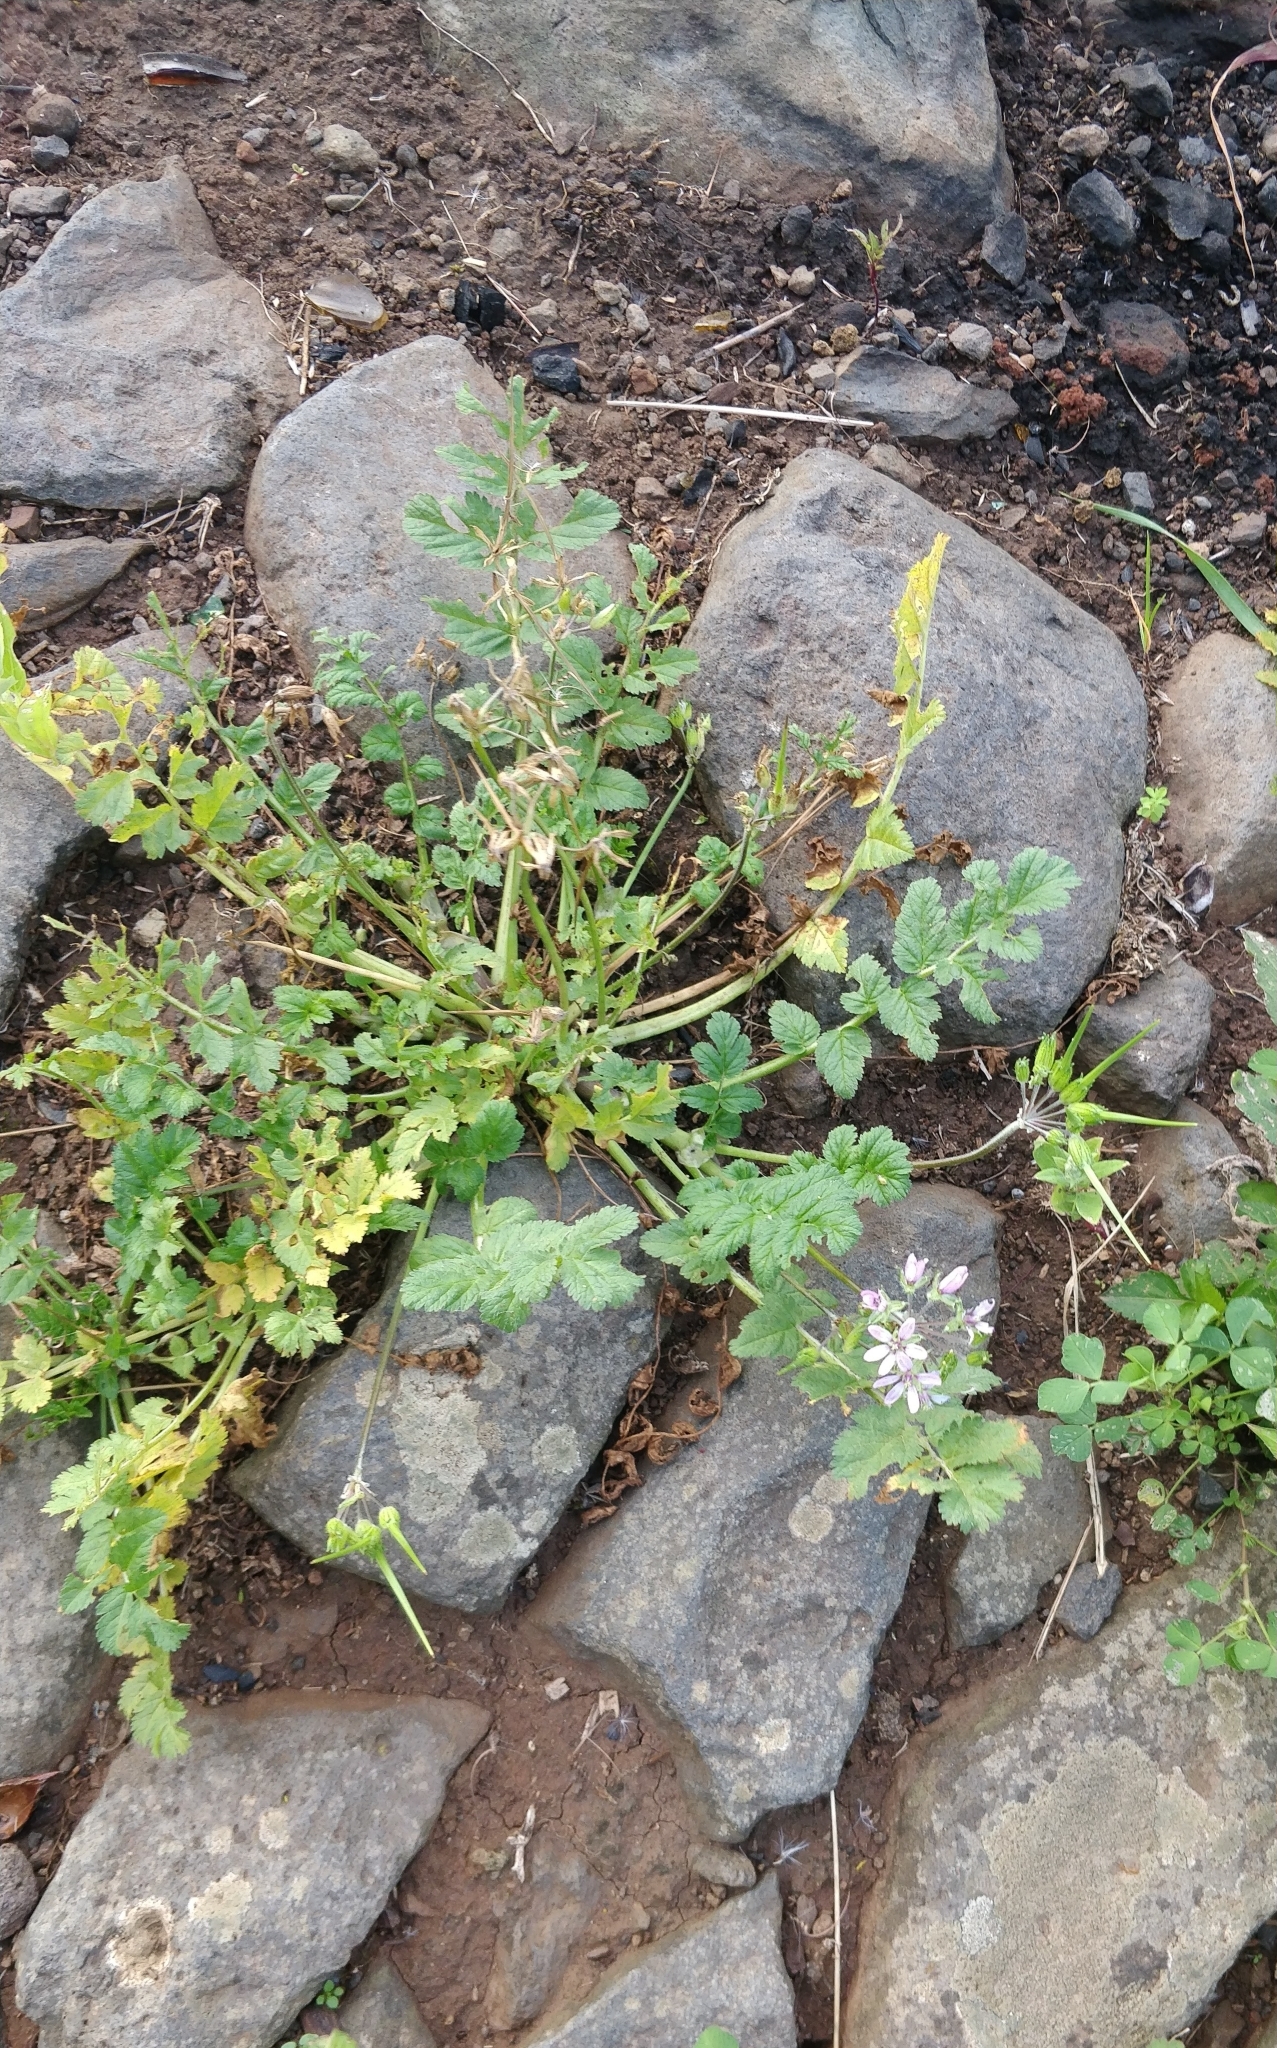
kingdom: Plantae
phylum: Tracheophyta
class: Magnoliopsida
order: Geraniales
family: Geraniaceae
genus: Erodium
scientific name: Erodium moschatum
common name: Musk stork's-bill
